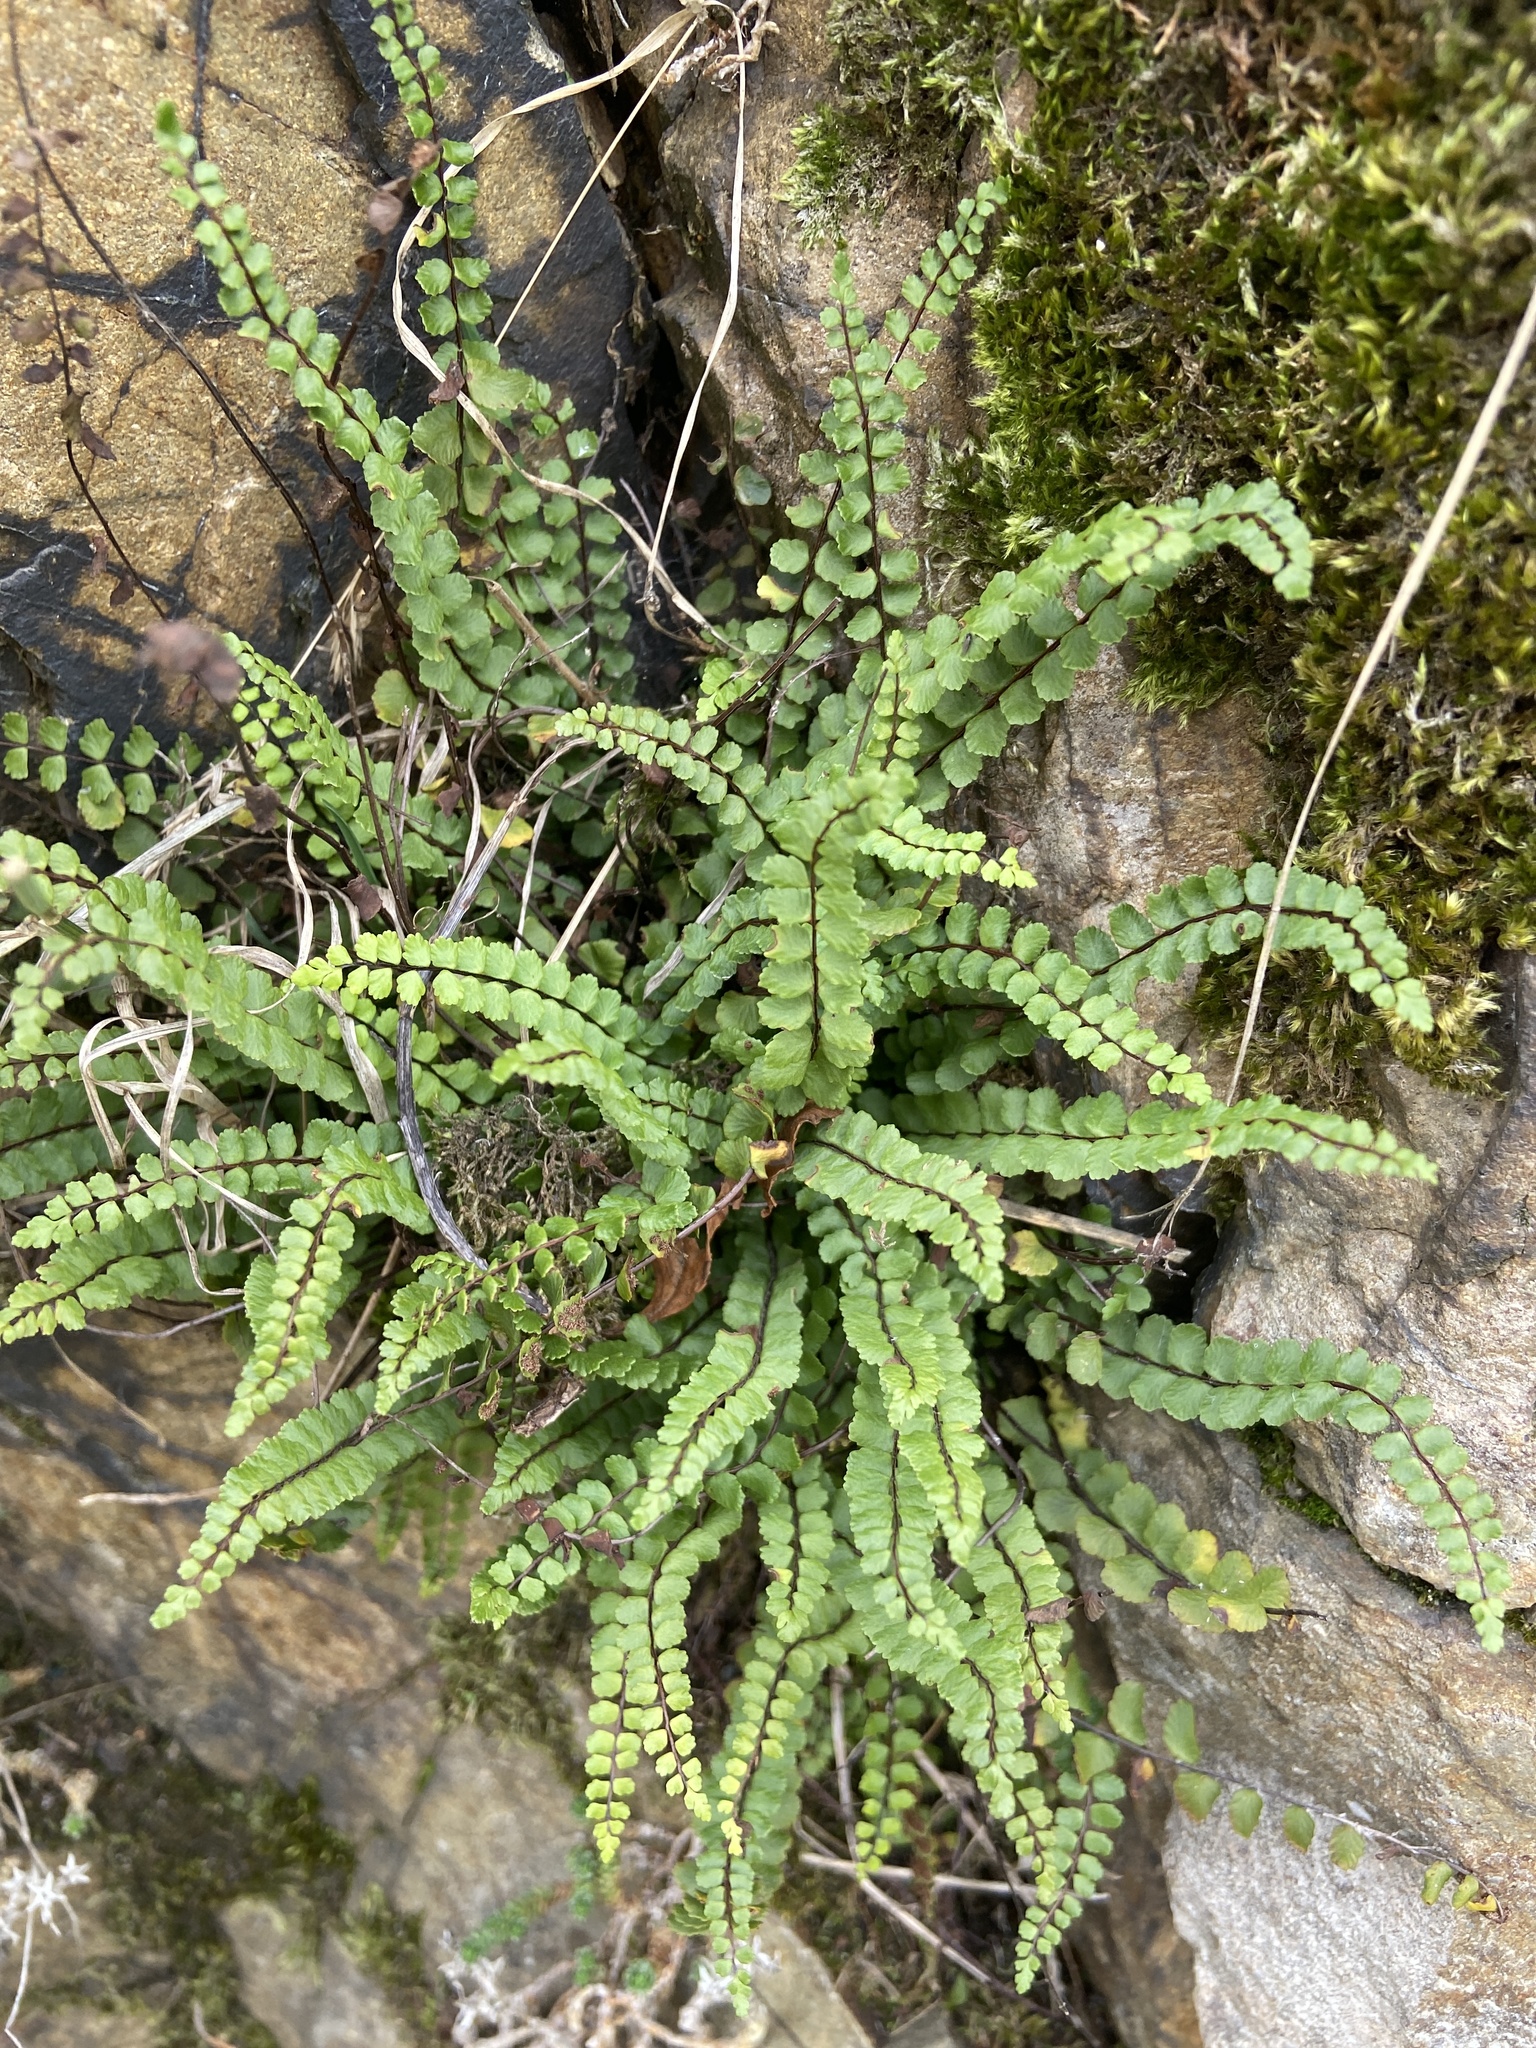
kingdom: Plantae
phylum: Tracheophyta
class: Polypodiopsida
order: Polypodiales
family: Aspleniaceae
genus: Asplenium
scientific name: Asplenium trichomanes
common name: Maidenhair spleenwort
